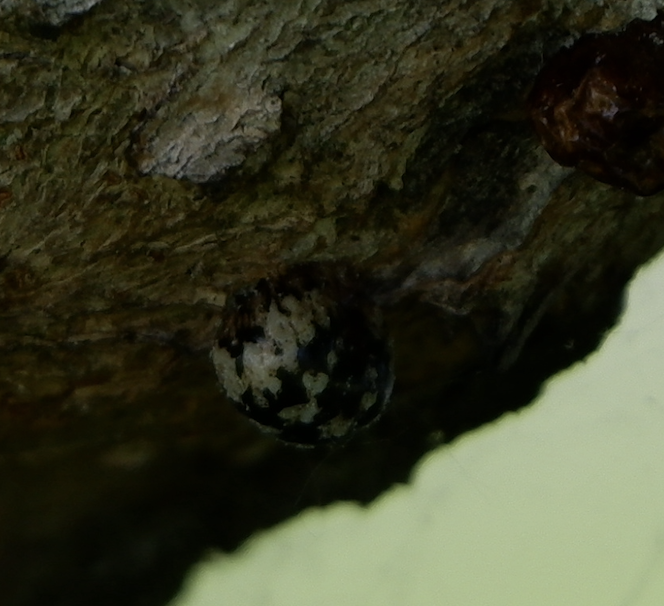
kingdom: Animalia
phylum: Arthropoda
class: Insecta
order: Hemiptera
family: Coccidae
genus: Eulecanium
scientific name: Eulecanium cerasorum
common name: Calico scale
